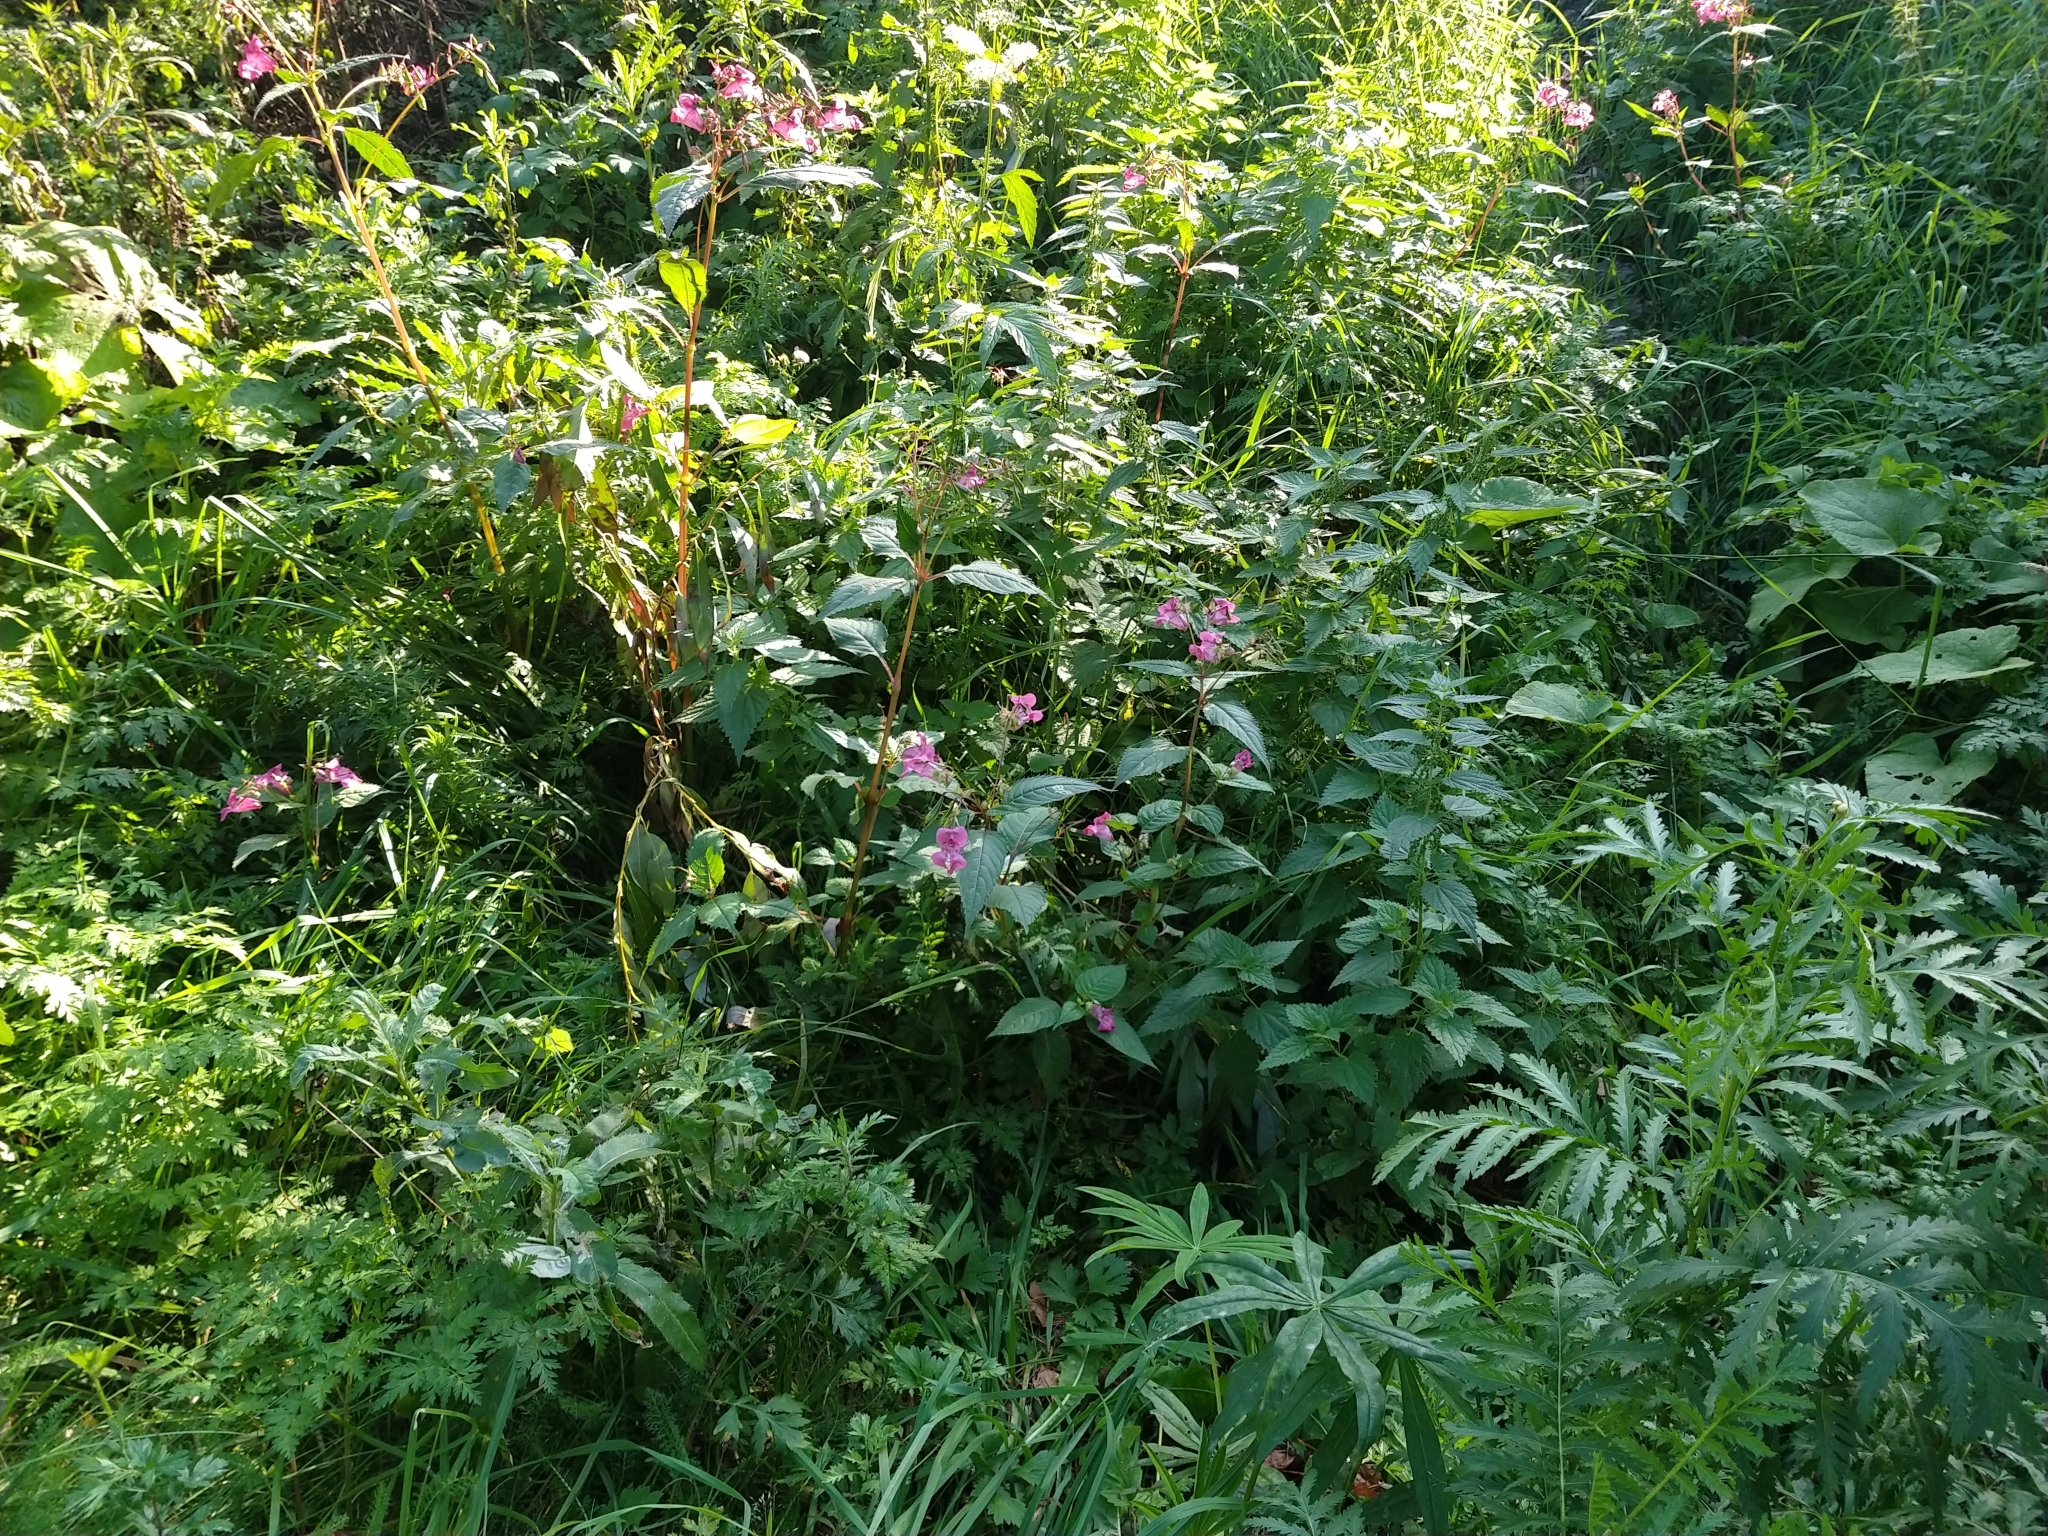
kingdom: Plantae
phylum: Tracheophyta
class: Magnoliopsida
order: Ericales
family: Balsaminaceae
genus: Impatiens
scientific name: Impatiens glandulifera
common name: Himalayan balsam
